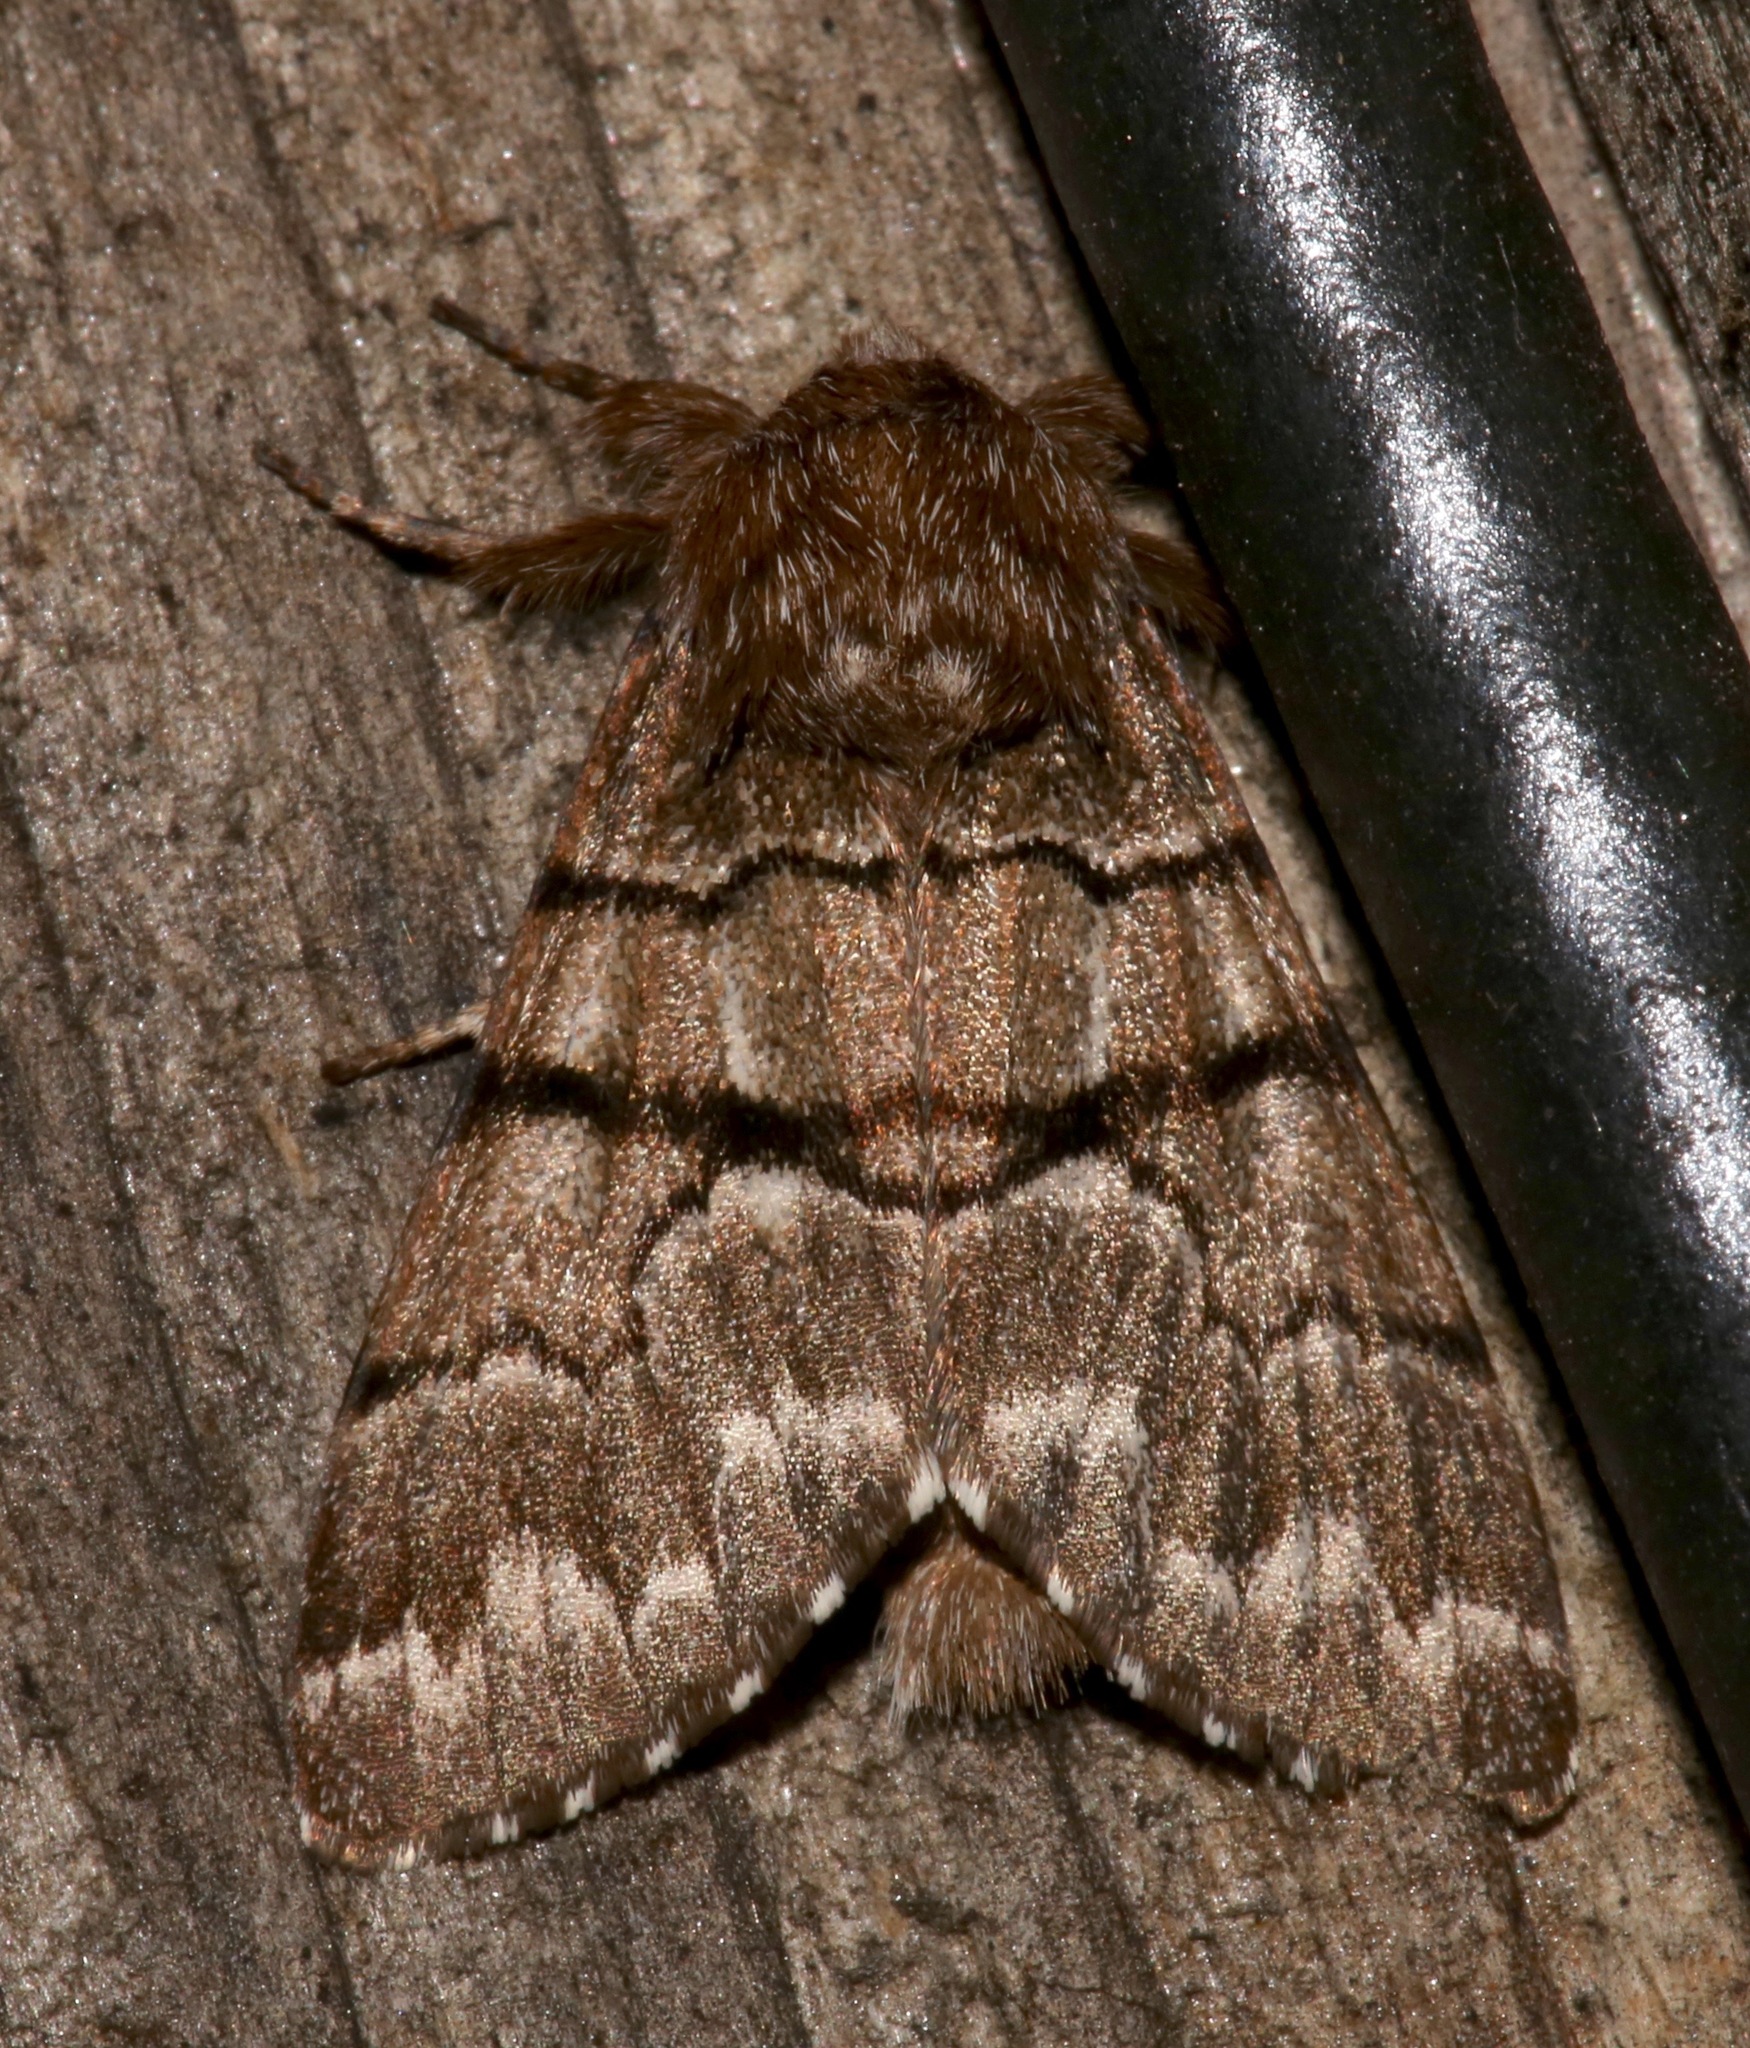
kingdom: Animalia
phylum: Arthropoda
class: Insecta
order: Lepidoptera
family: Noctuidae
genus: Panthea
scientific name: Panthea furcilla
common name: Eastern panthea moth
